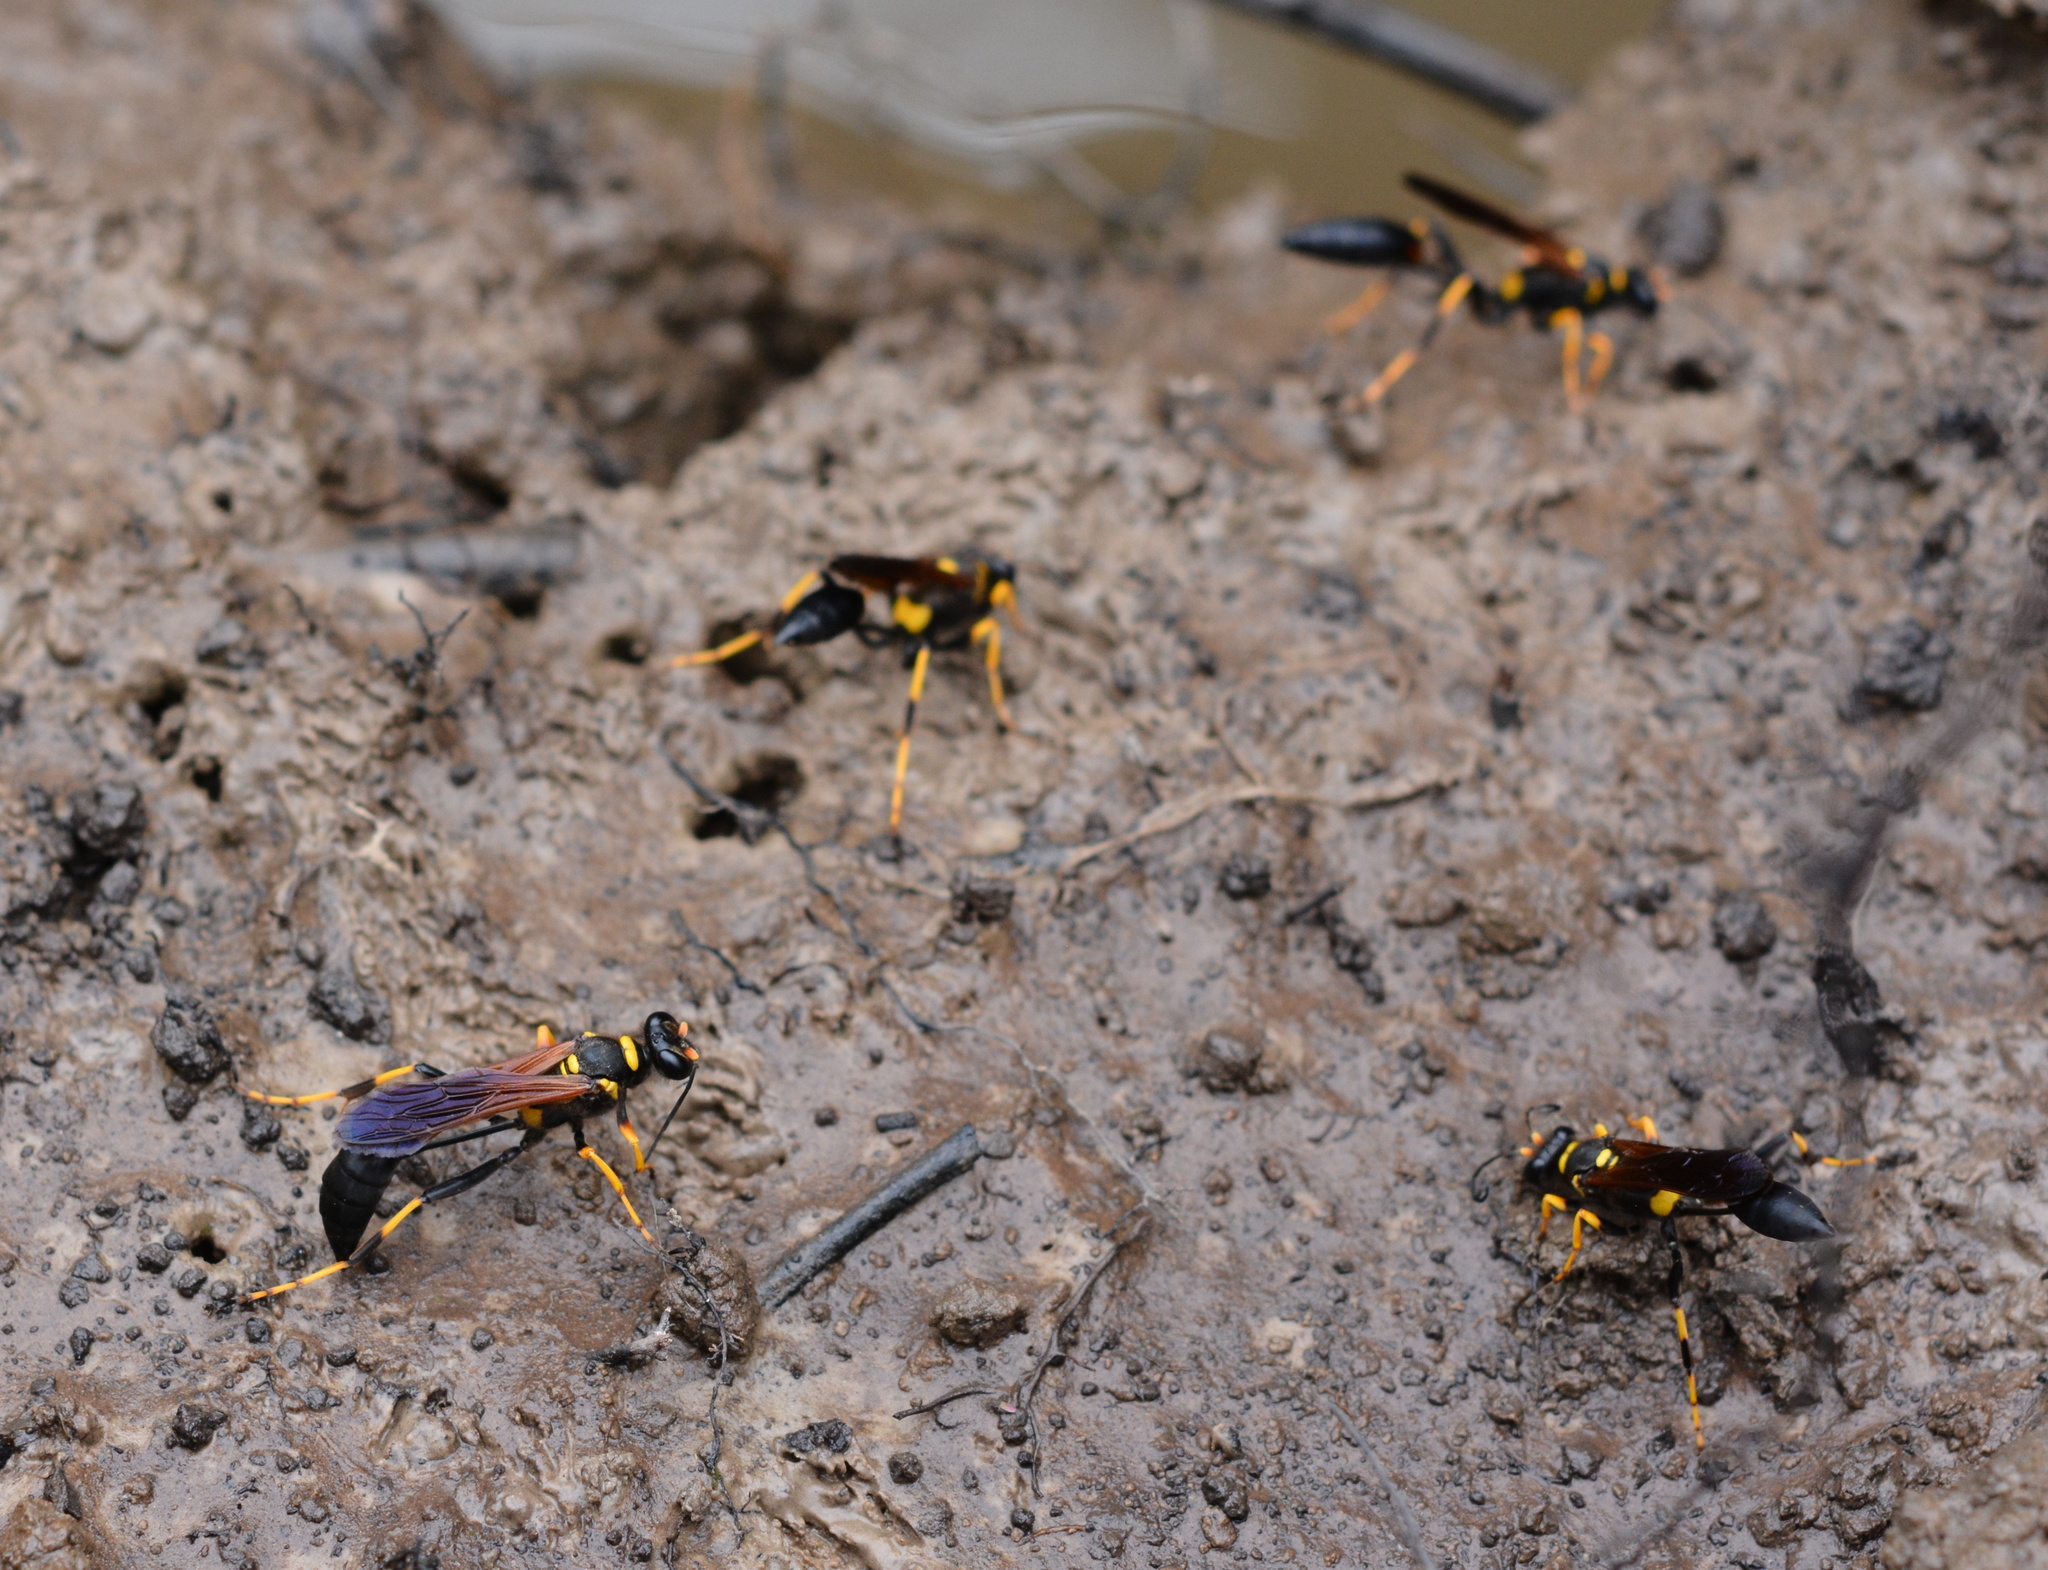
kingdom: Animalia
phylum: Arthropoda
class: Insecta
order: Hymenoptera
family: Sphecidae
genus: Sceliphron
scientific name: Sceliphron caementarium
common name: Mud dauber
